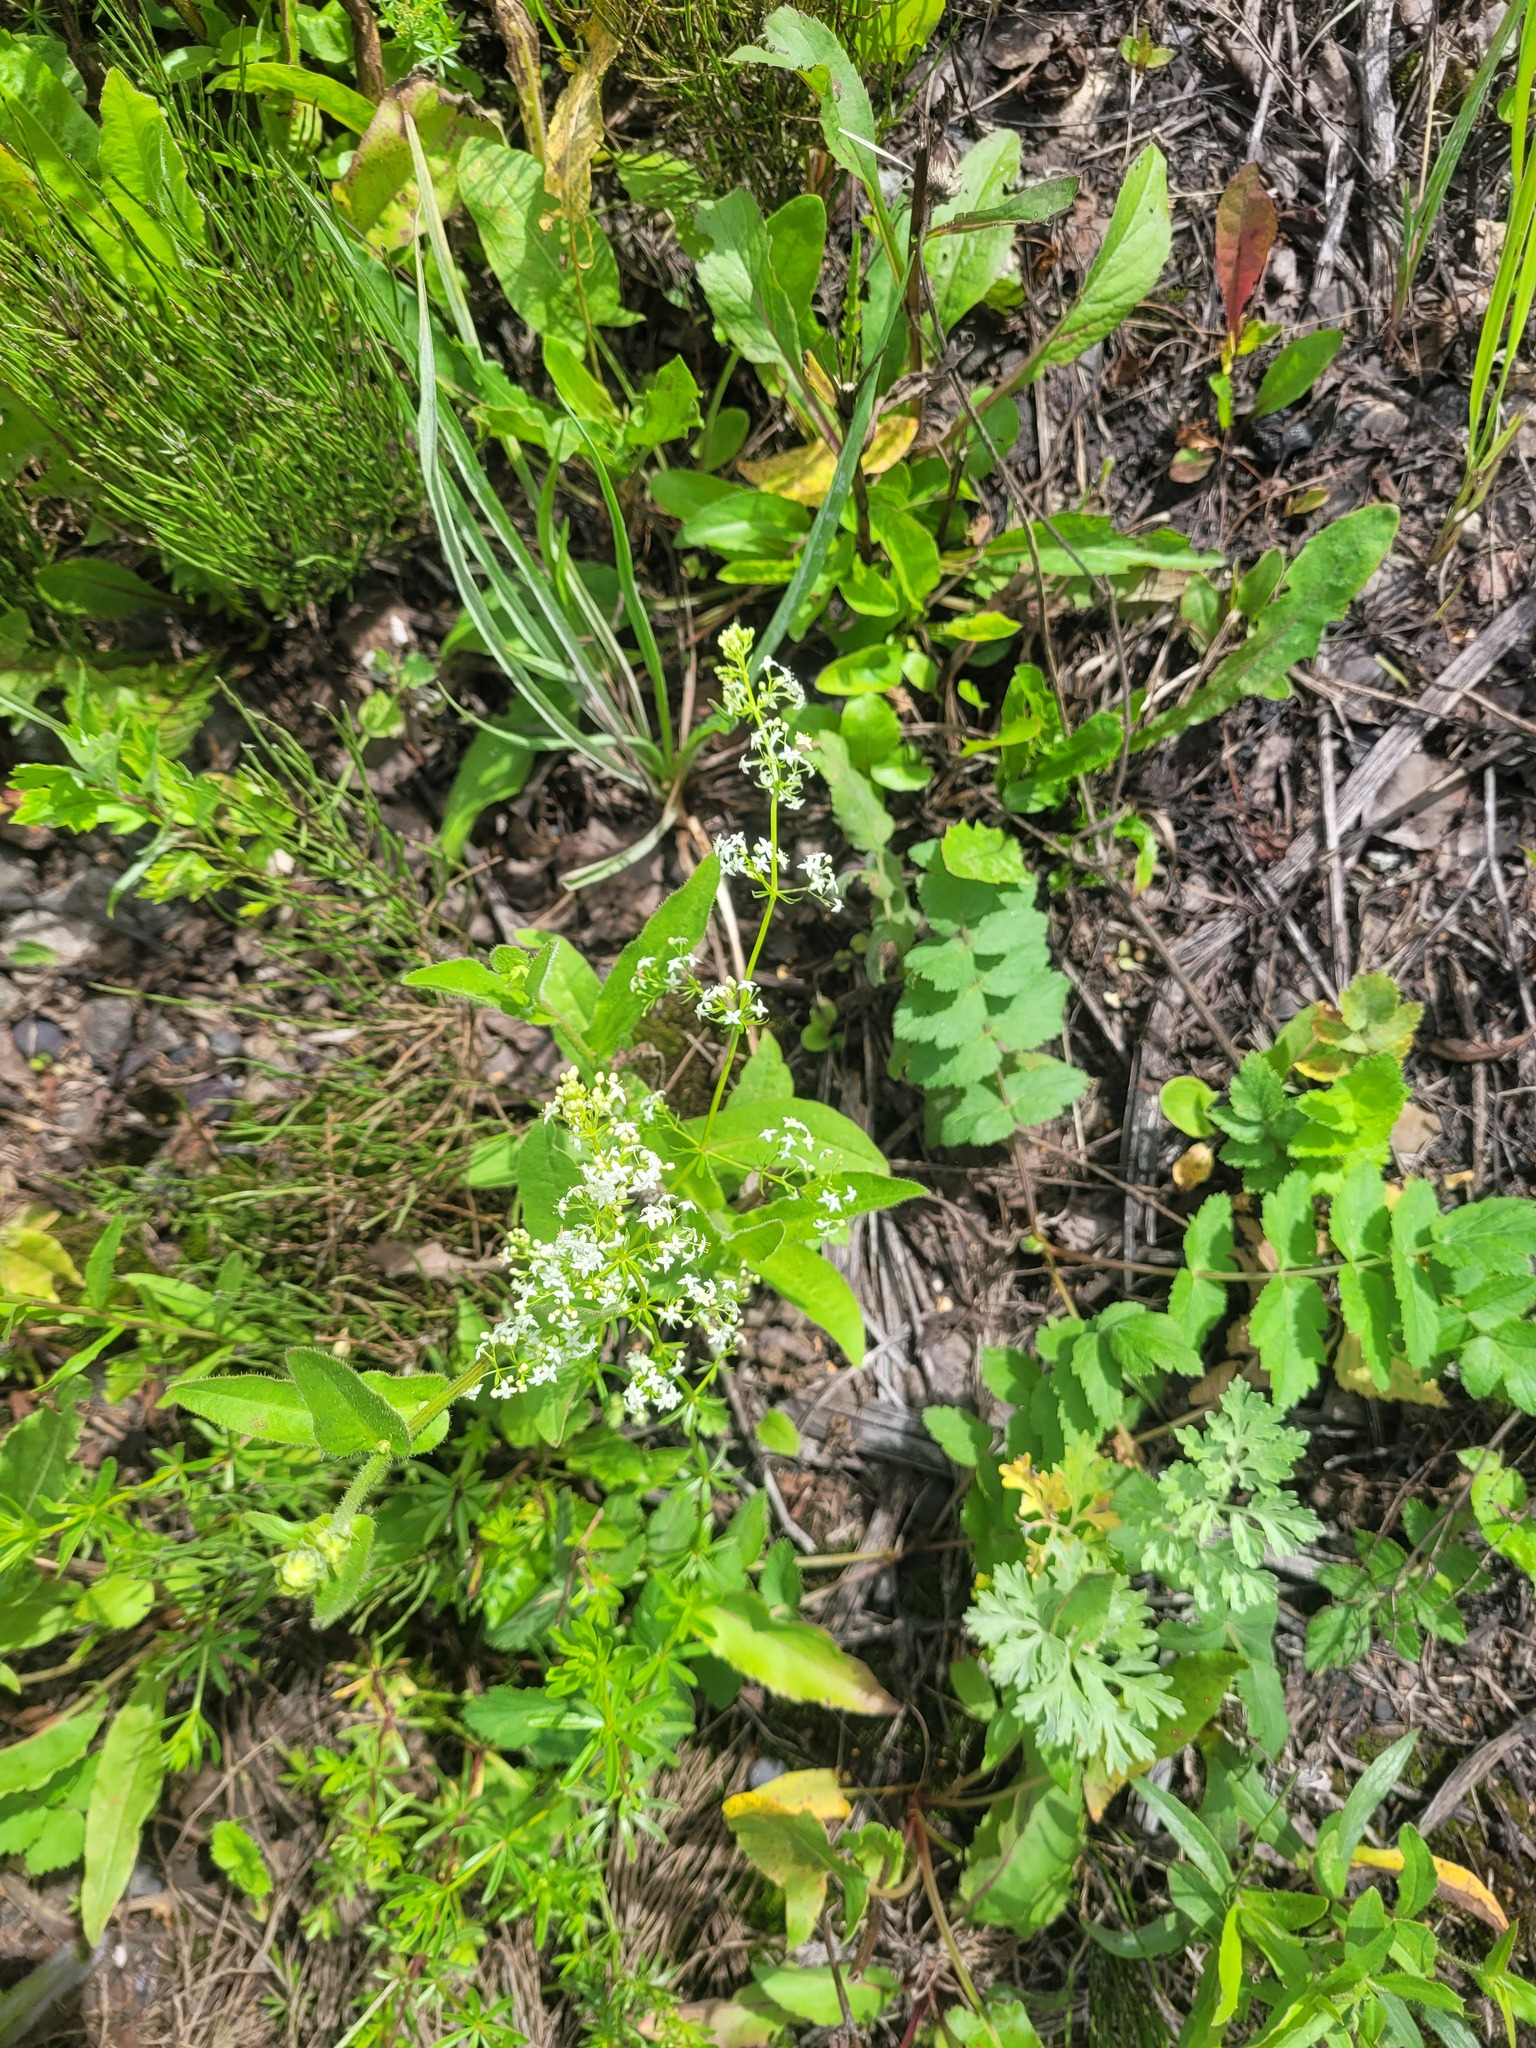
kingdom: Plantae
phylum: Tracheophyta
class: Magnoliopsida
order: Gentianales
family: Rubiaceae
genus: Galium
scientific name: Galium mollugo
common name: Hedge bedstraw
